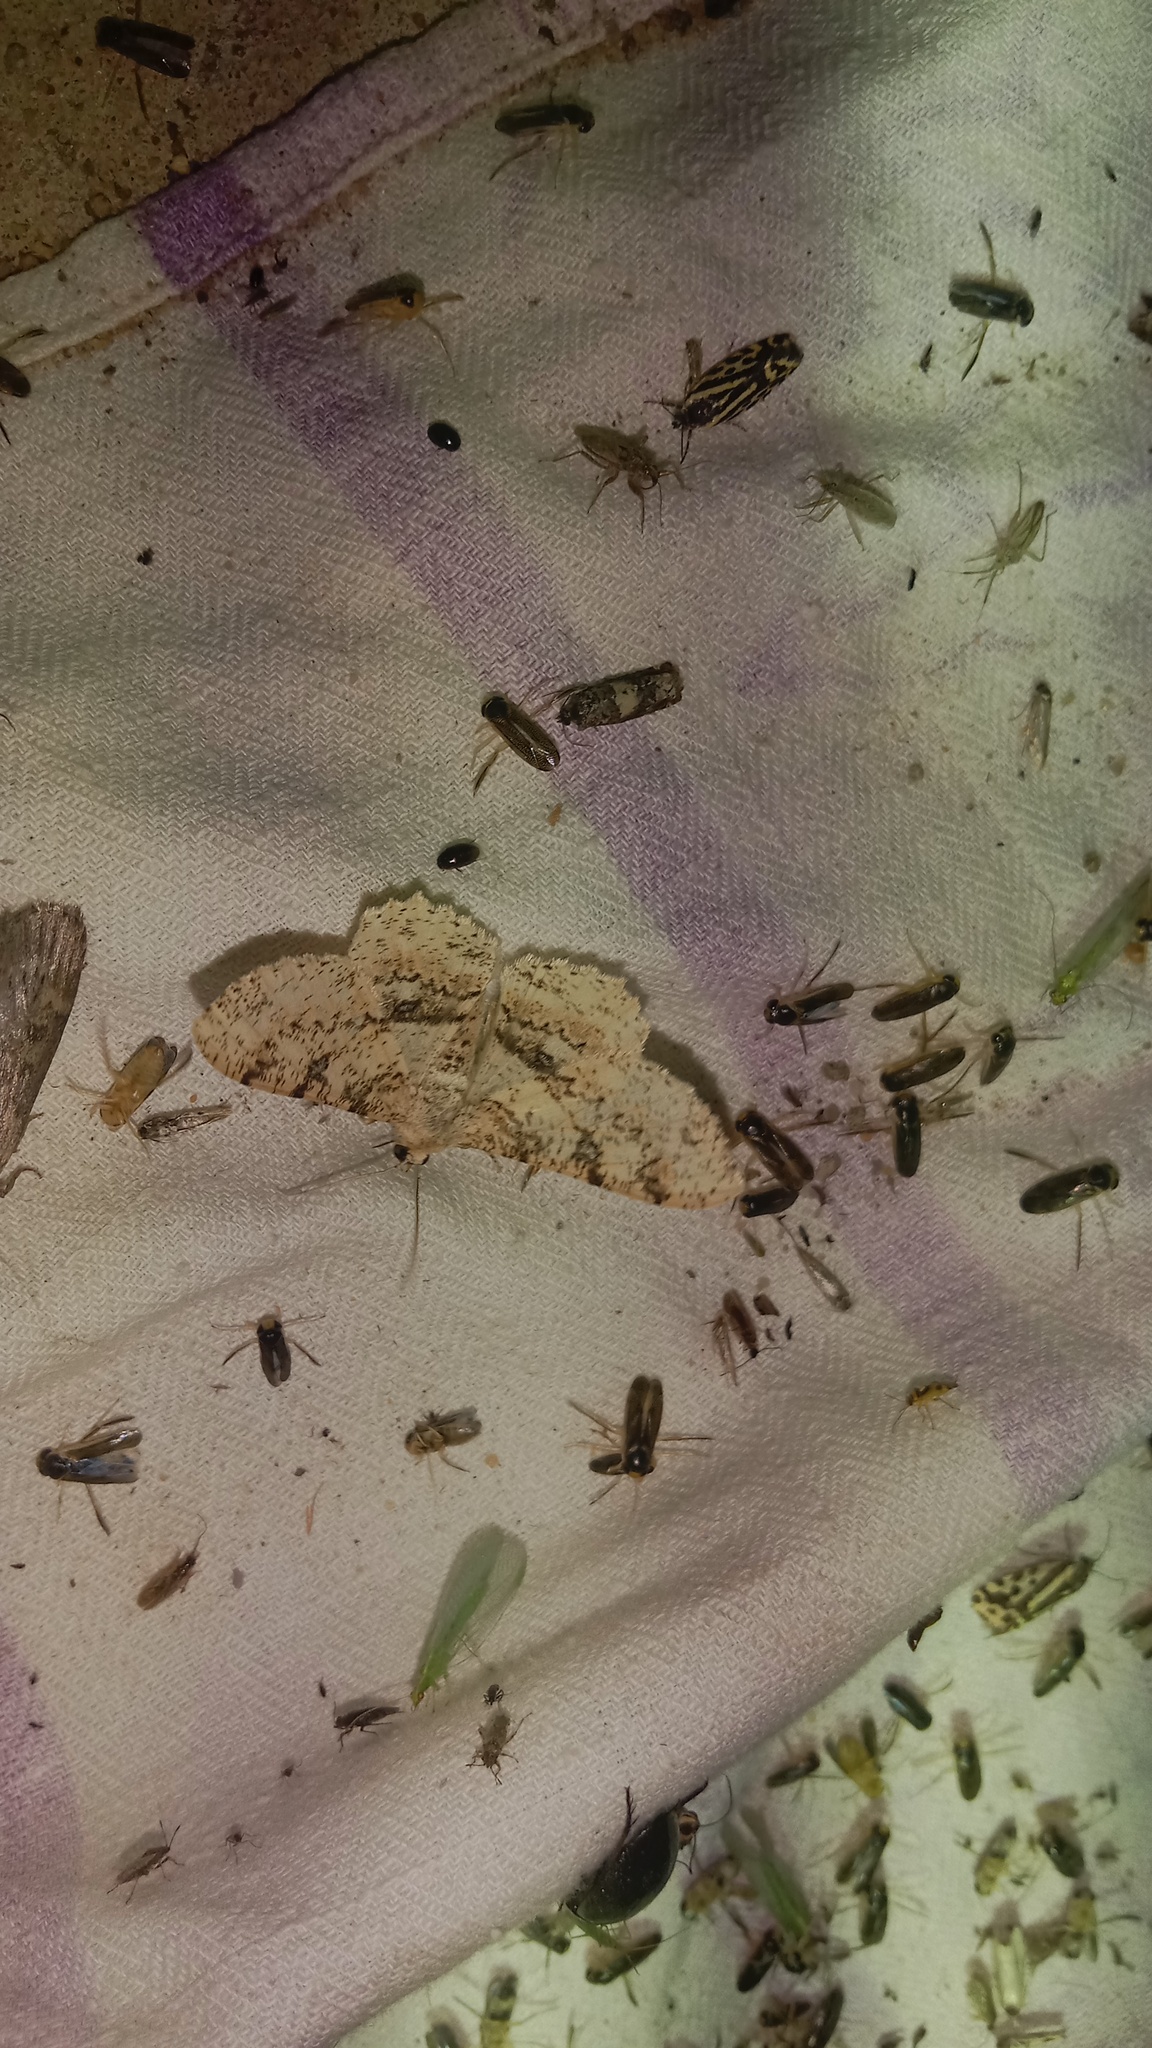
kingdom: Animalia
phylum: Arthropoda
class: Insecta
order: Lepidoptera
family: Geometridae
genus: Ascotis
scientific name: Ascotis selenaria
